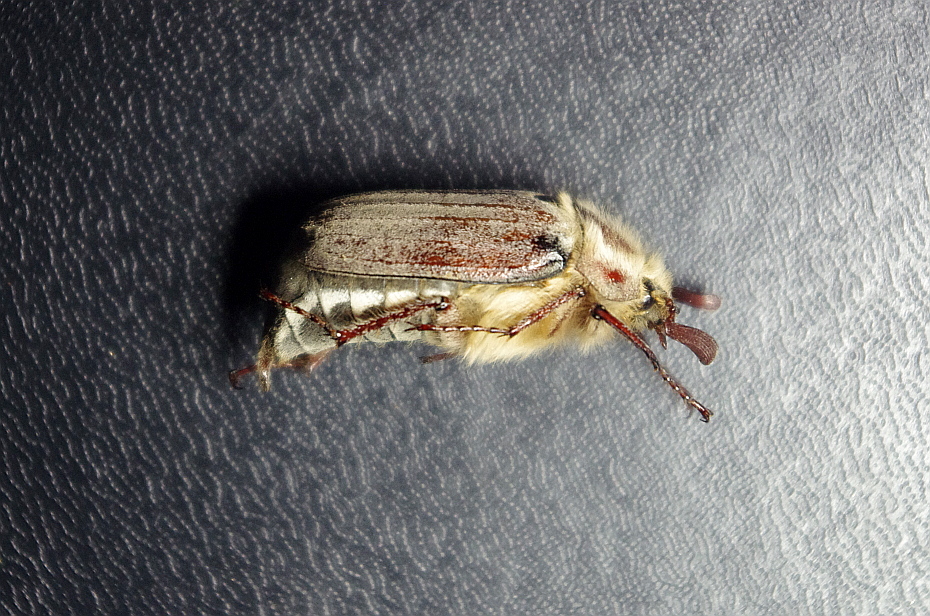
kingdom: Animalia
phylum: Arthropoda
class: Insecta
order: Coleoptera
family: Scarabaeidae
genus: Melolontha
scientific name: Melolontha hippocastani
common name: Chestnut cockchafer
